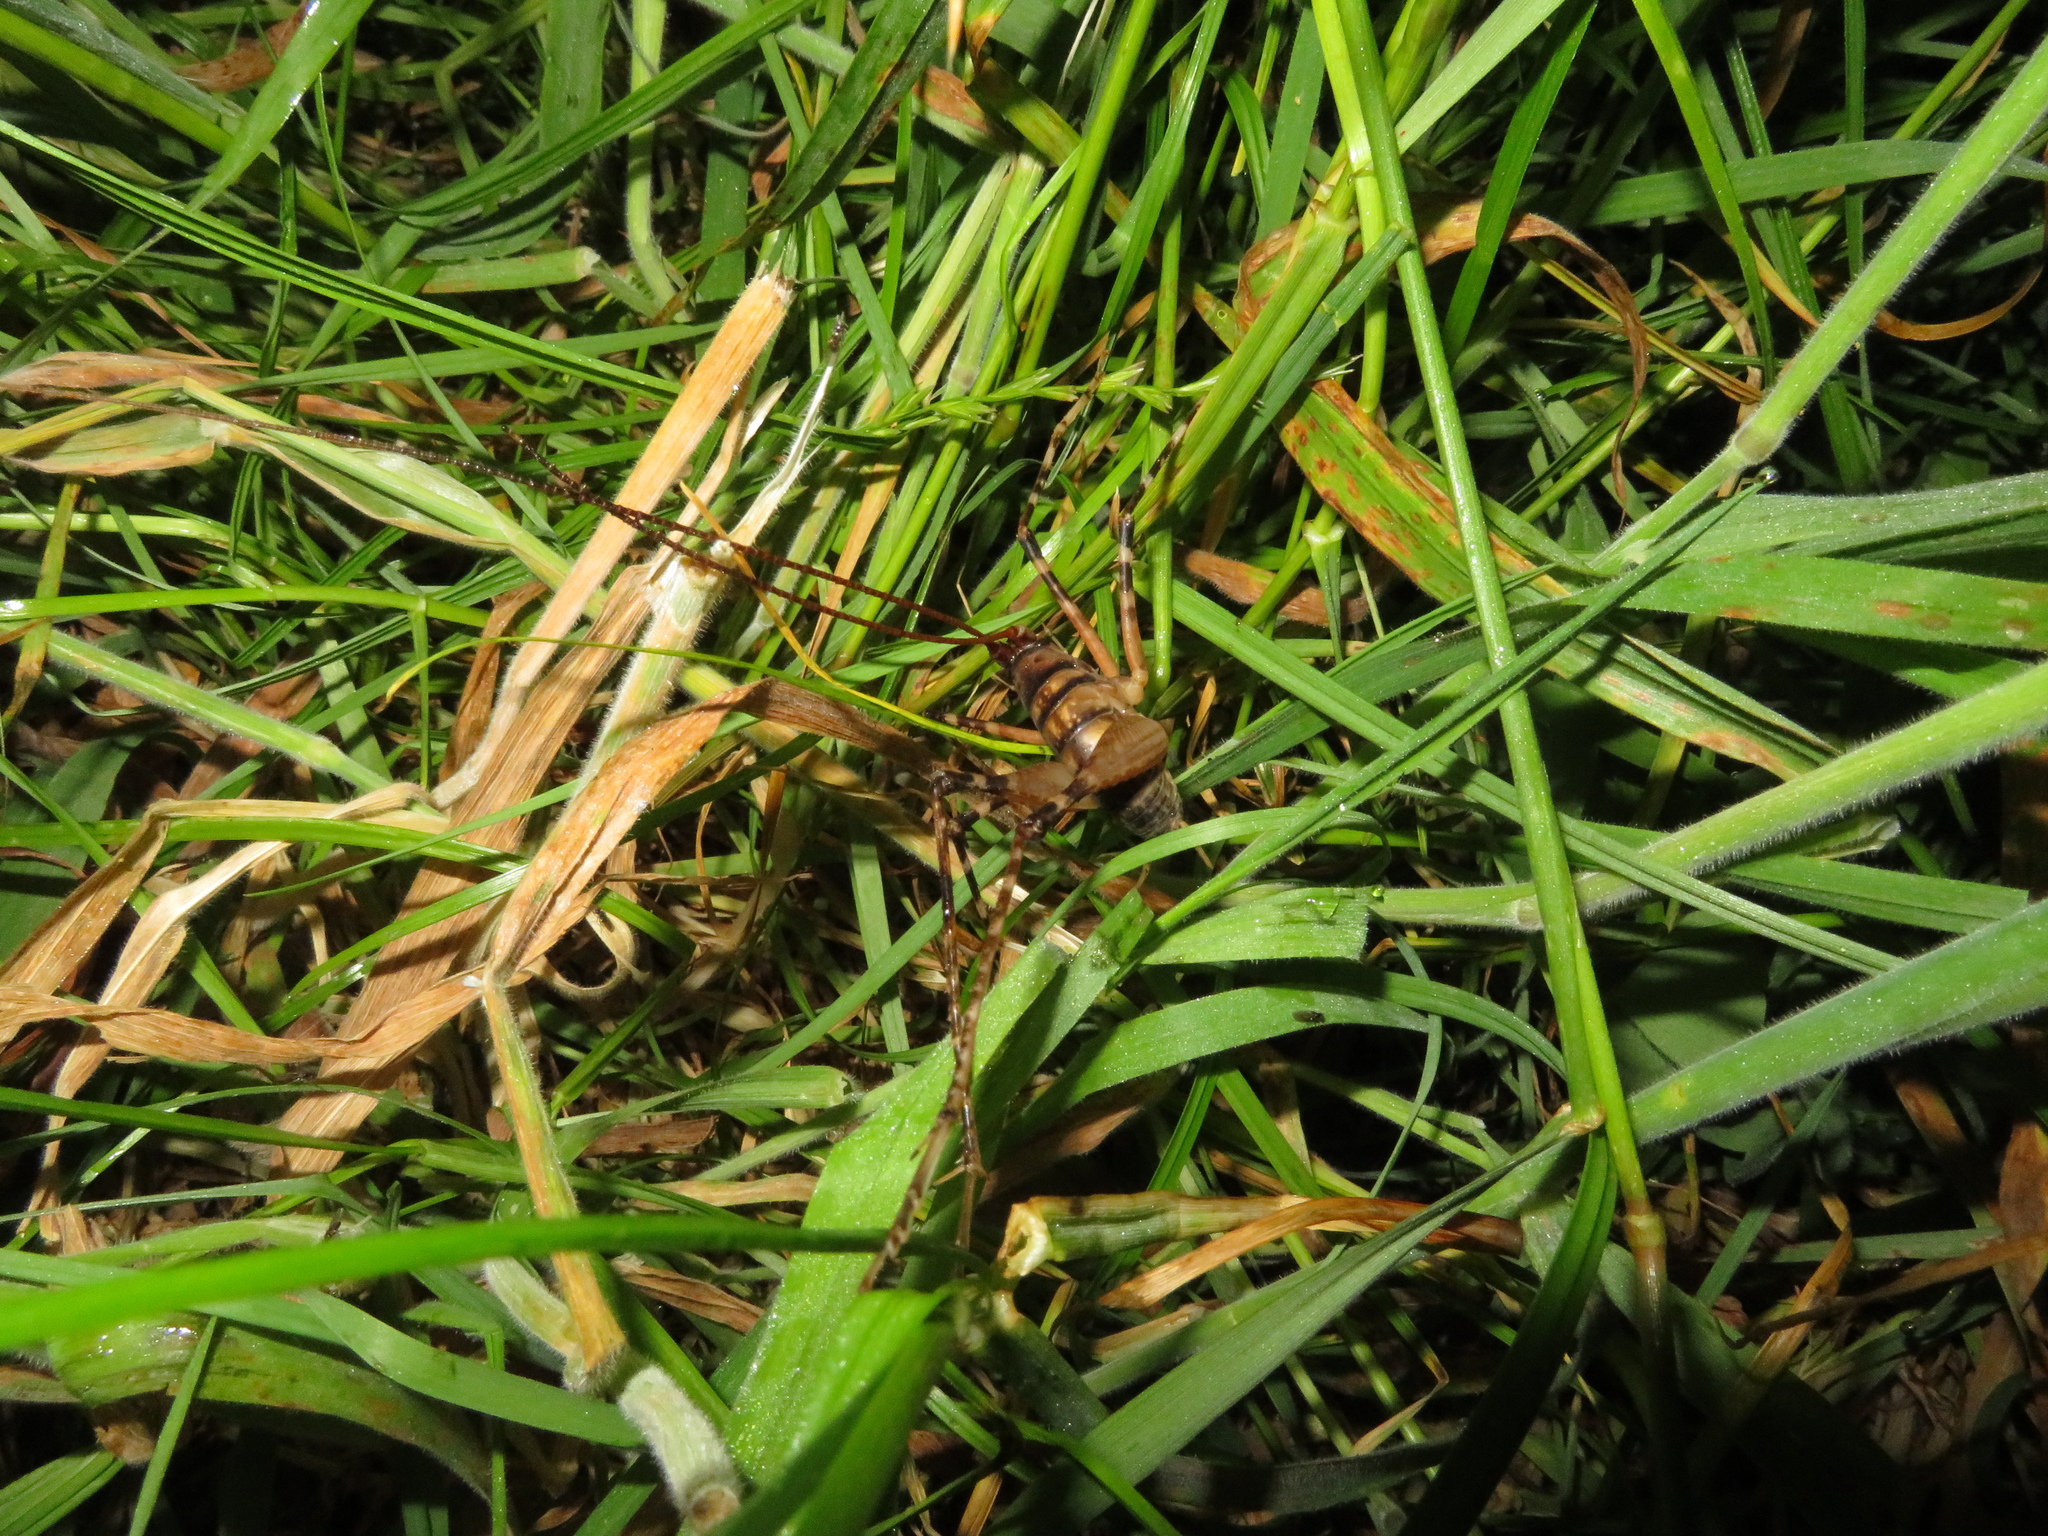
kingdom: Animalia
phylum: Arthropoda
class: Insecta
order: Orthoptera
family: Rhaphidophoridae
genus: Pachyrhamma
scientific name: Pachyrhamma edwardsii
